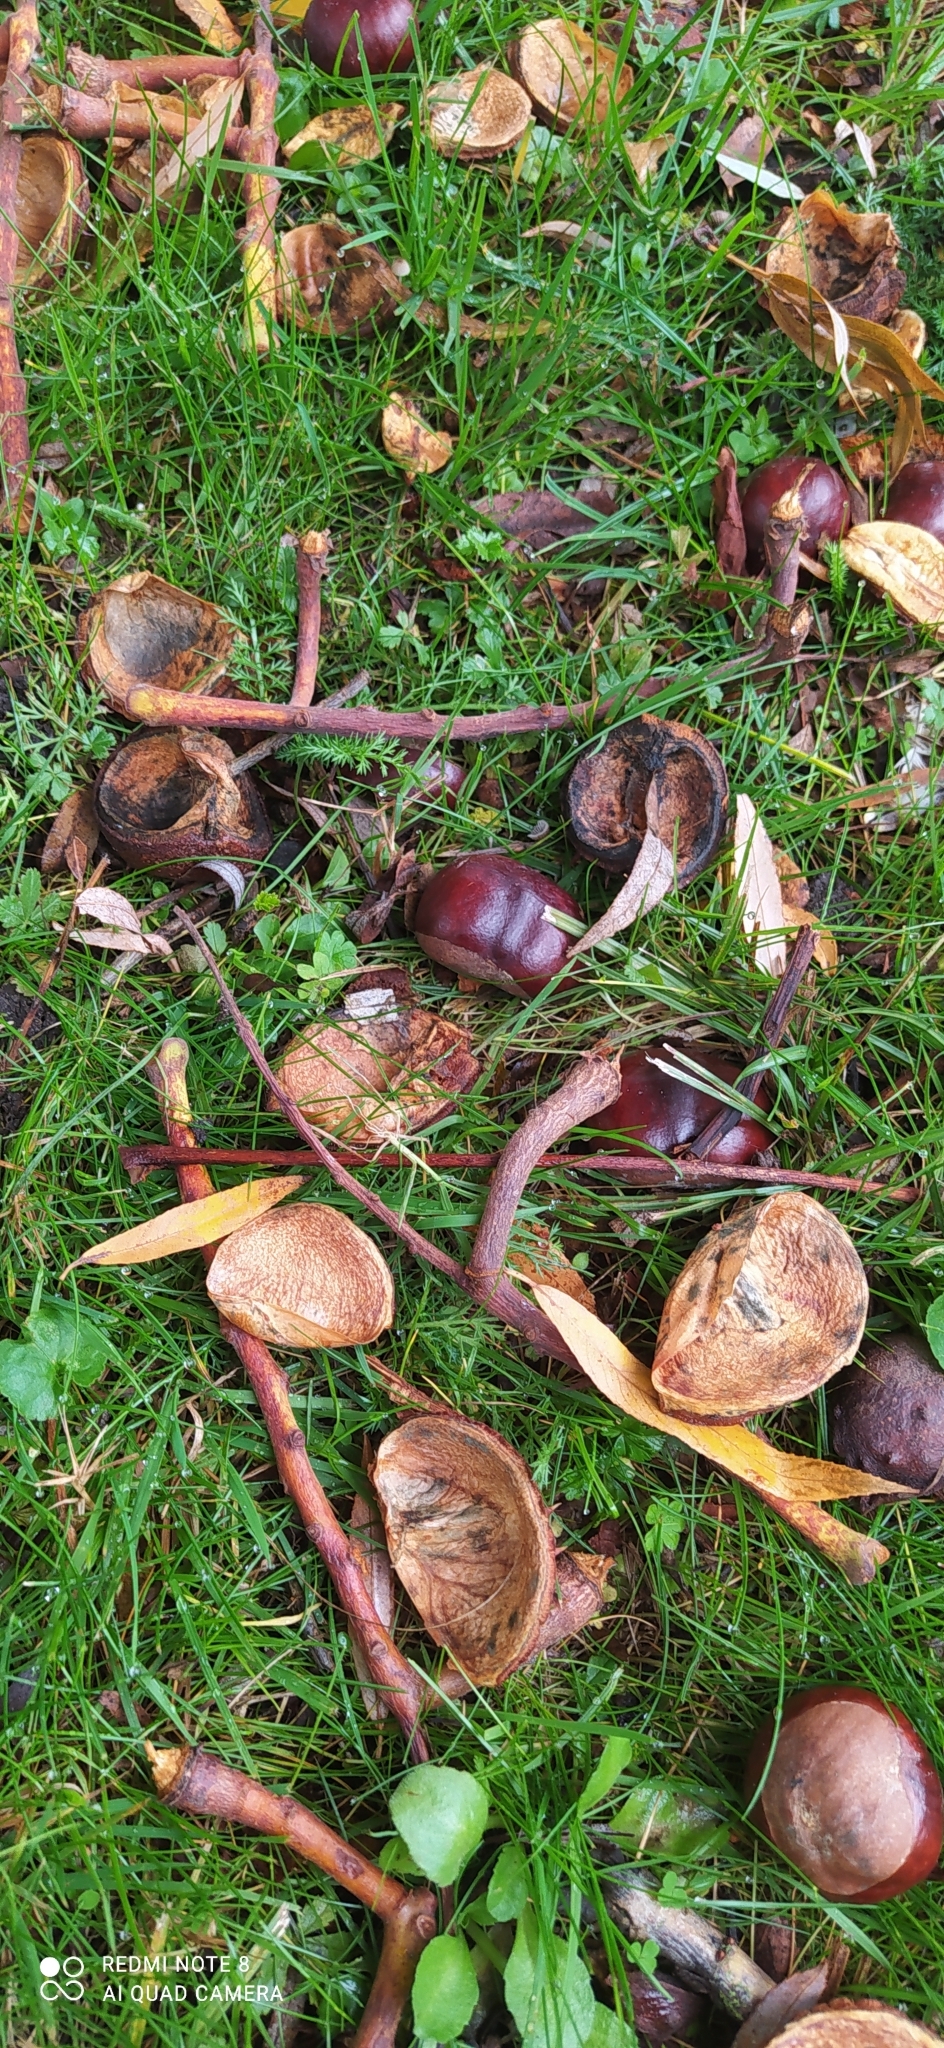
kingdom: Plantae
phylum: Tracheophyta
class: Magnoliopsida
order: Sapindales
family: Sapindaceae
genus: Aesculus
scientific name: Aesculus hippocastanum
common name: Horse-chestnut
